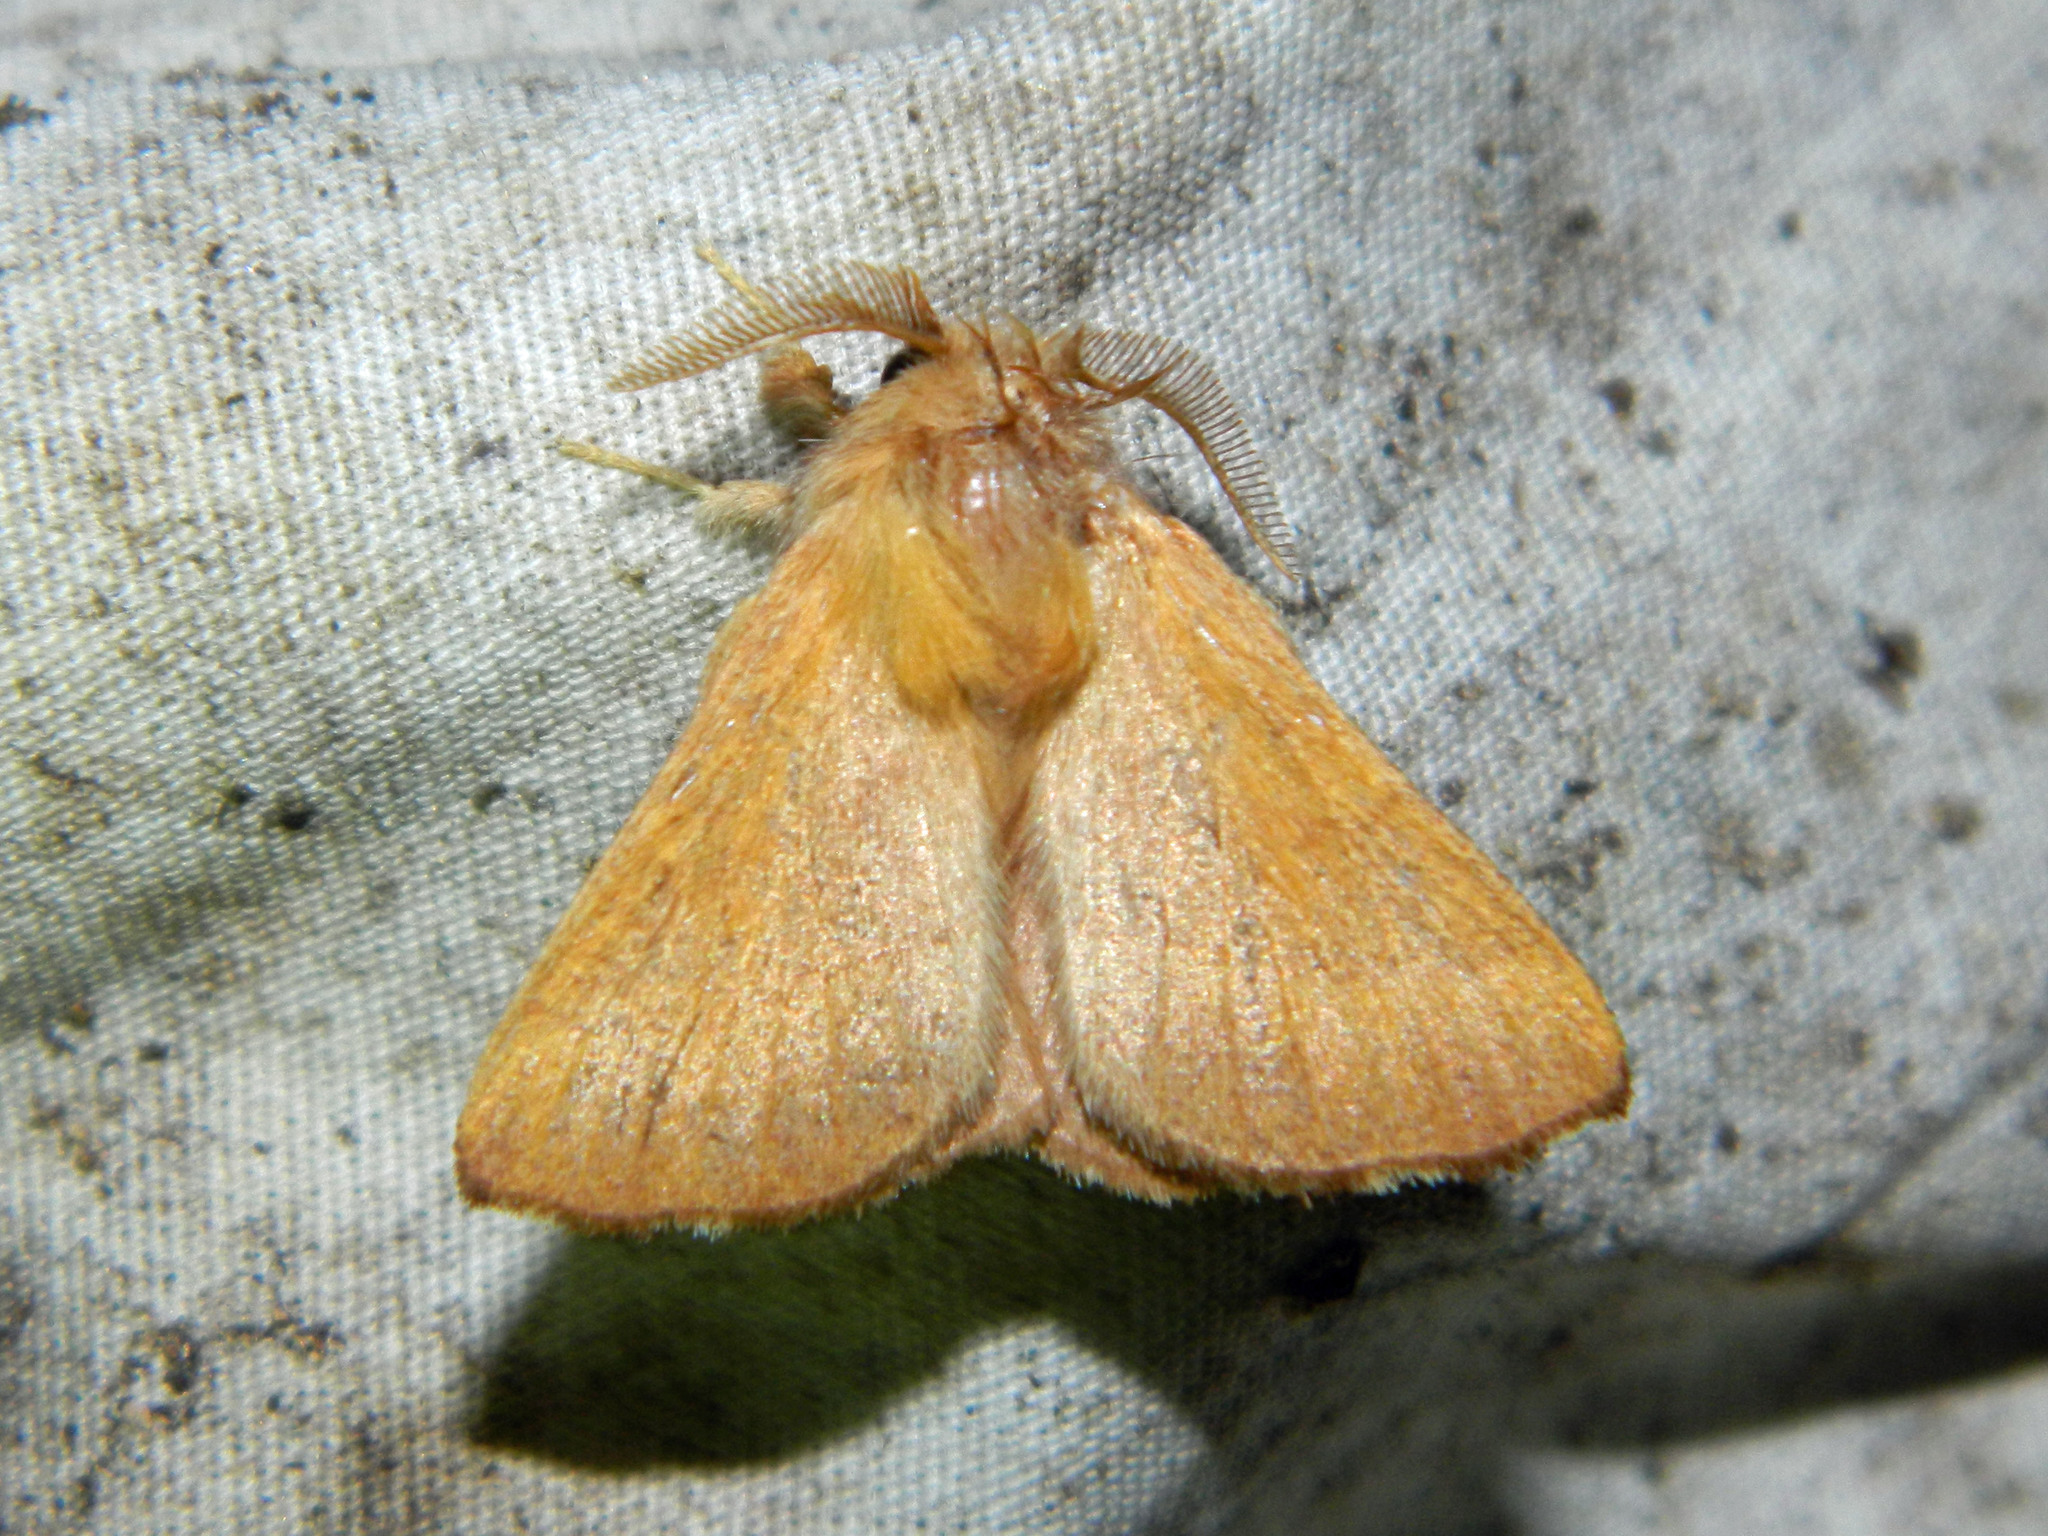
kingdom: Animalia
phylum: Arthropoda
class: Insecta
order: Lepidoptera
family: Lasiocampidae
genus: Malacosoma
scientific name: Malacosoma disstria
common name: Forest tent caterpillar
